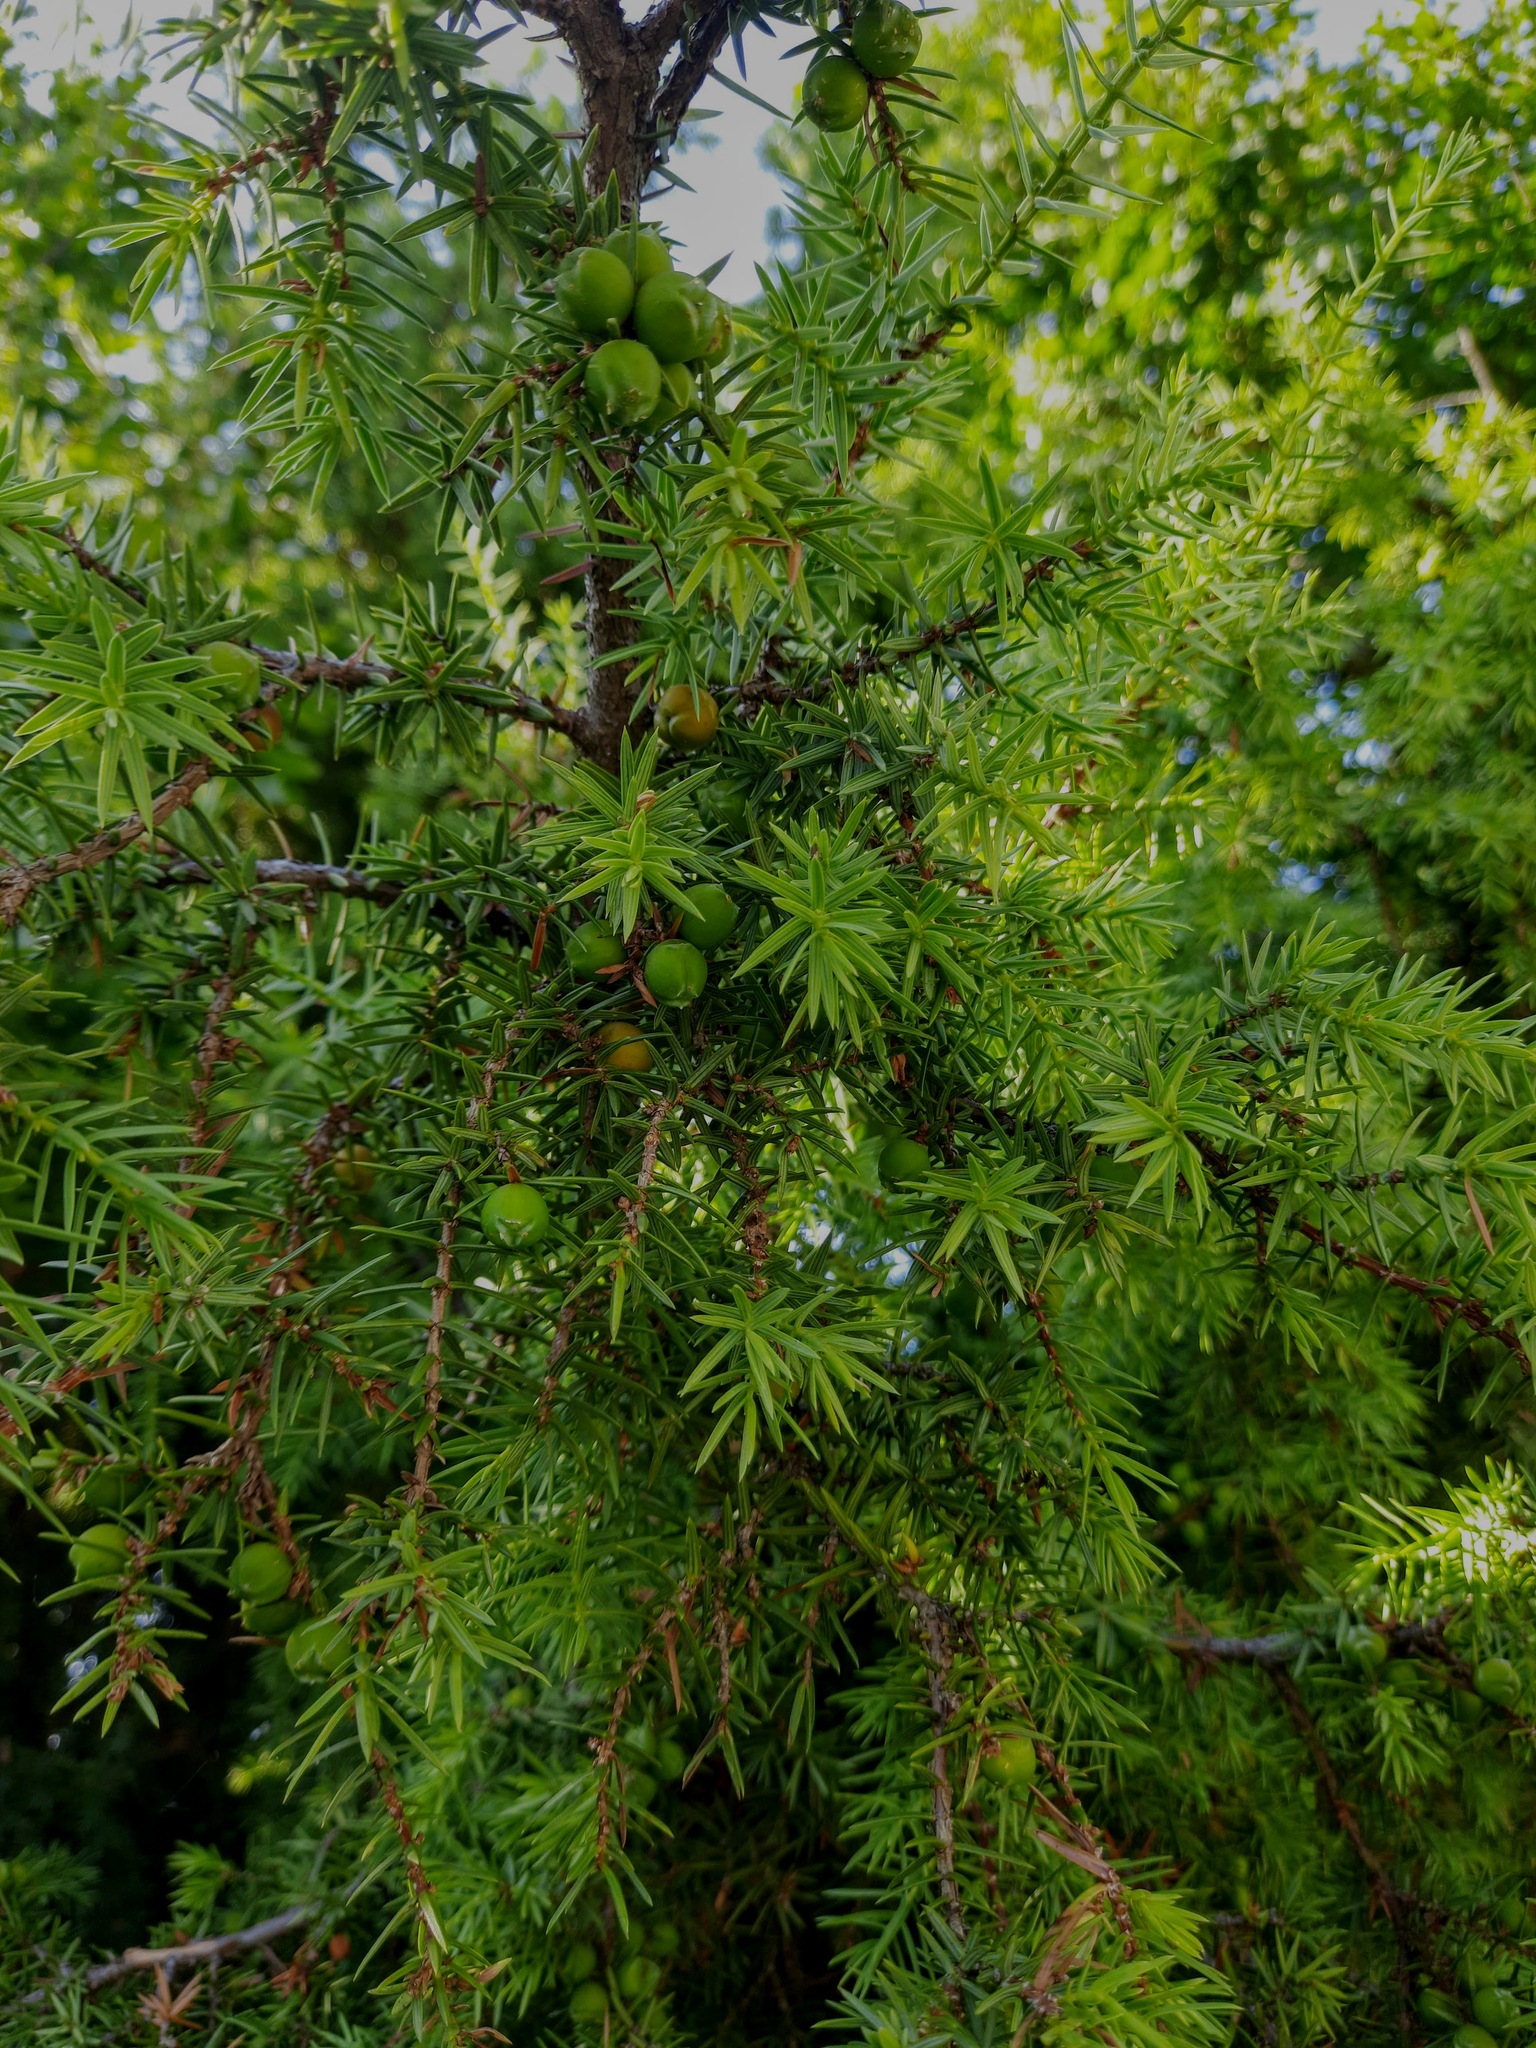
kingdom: Plantae
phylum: Tracheophyta
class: Pinopsida
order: Pinales
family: Cupressaceae
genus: Juniperus
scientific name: Juniperus oxycedrus
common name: Prickly juniper
